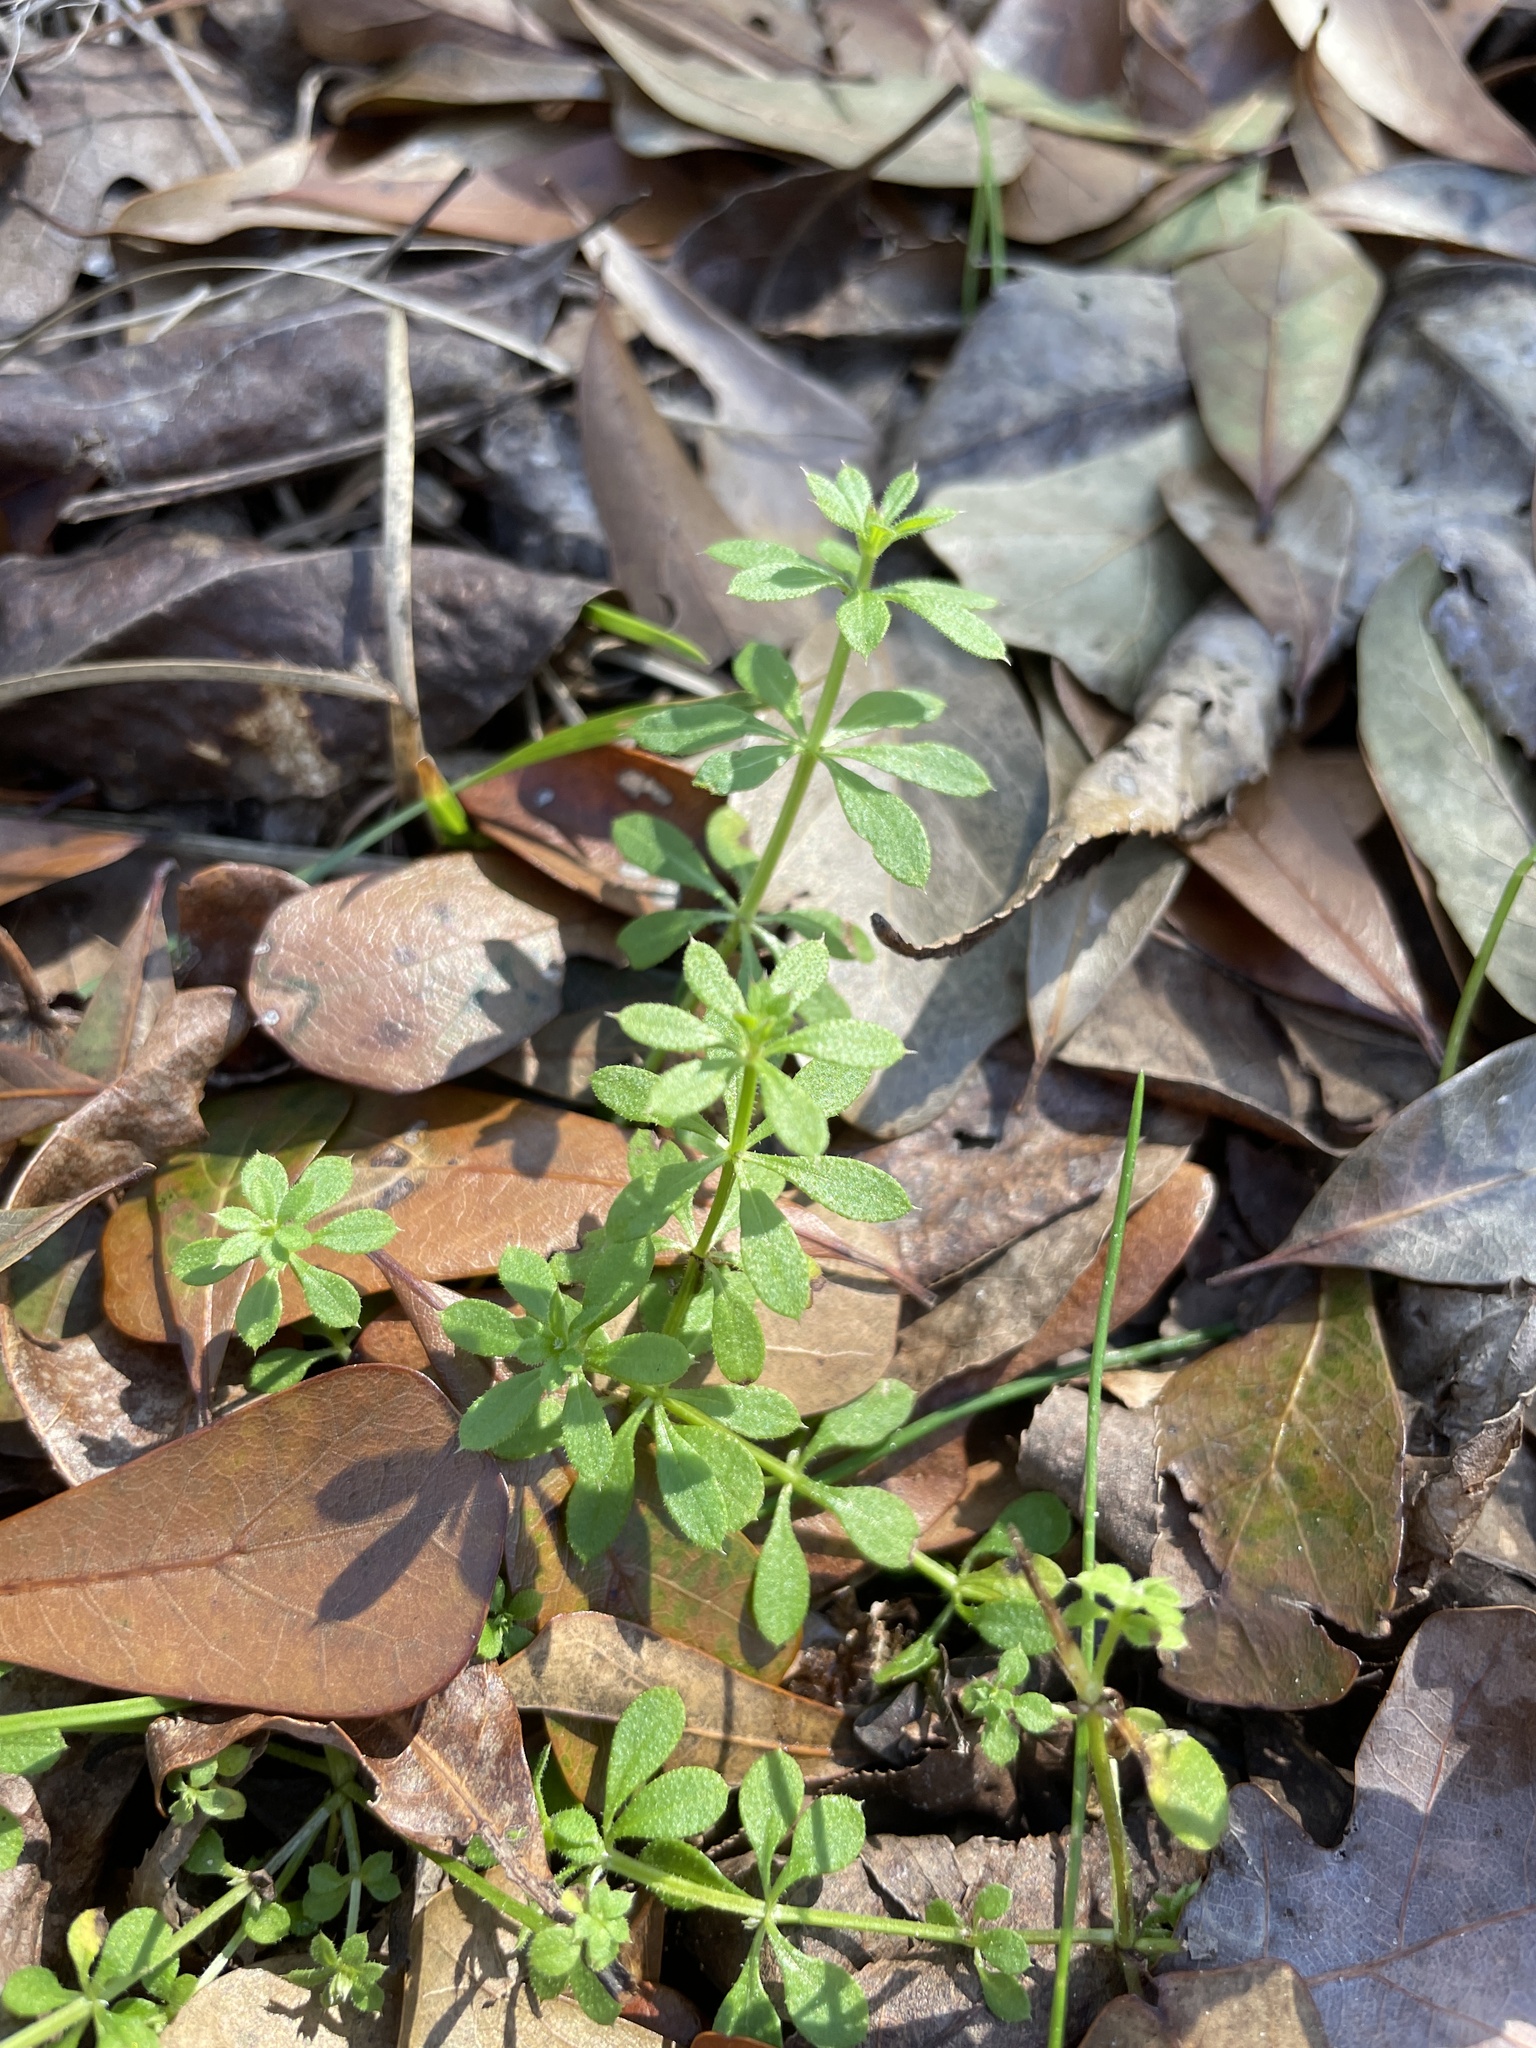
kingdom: Plantae
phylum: Tracheophyta
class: Magnoliopsida
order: Gentianales
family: Rubiaceae
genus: Galium
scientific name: Galium aparine
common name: Cleavers
